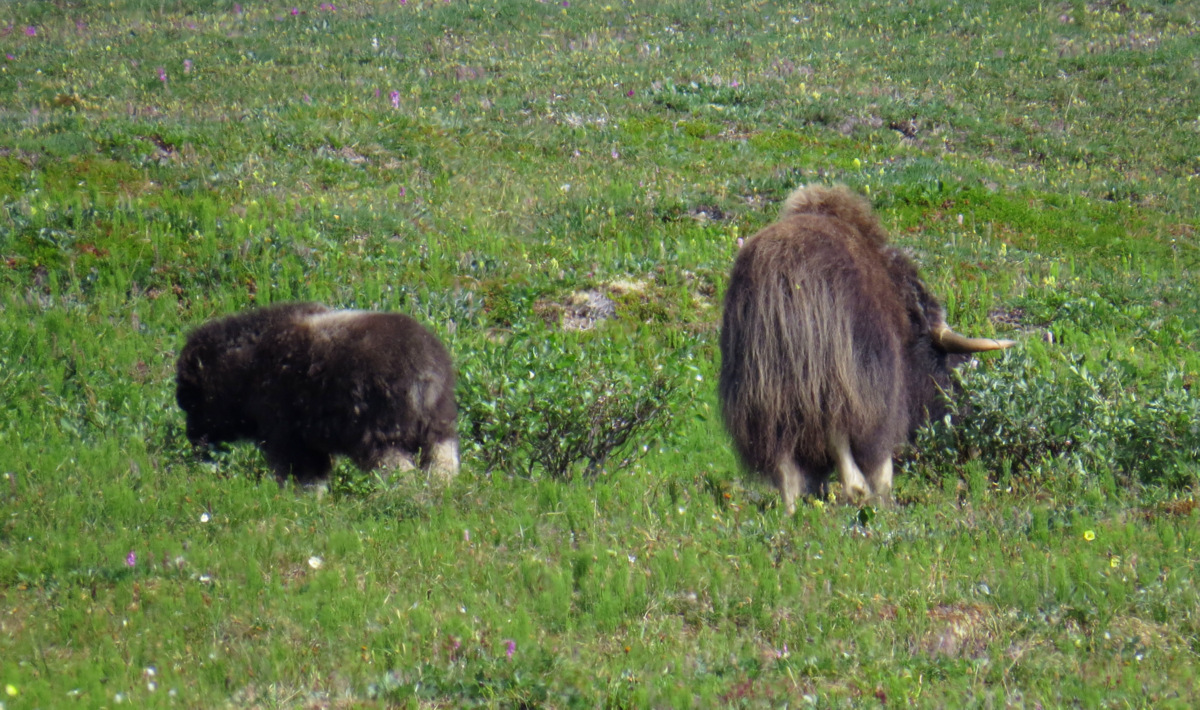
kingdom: Animalia
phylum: Chordata
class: Mammalia
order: Artiodactyla
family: Bovidae
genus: Ovibos
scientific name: Ovibos moschatus
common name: Muskox
